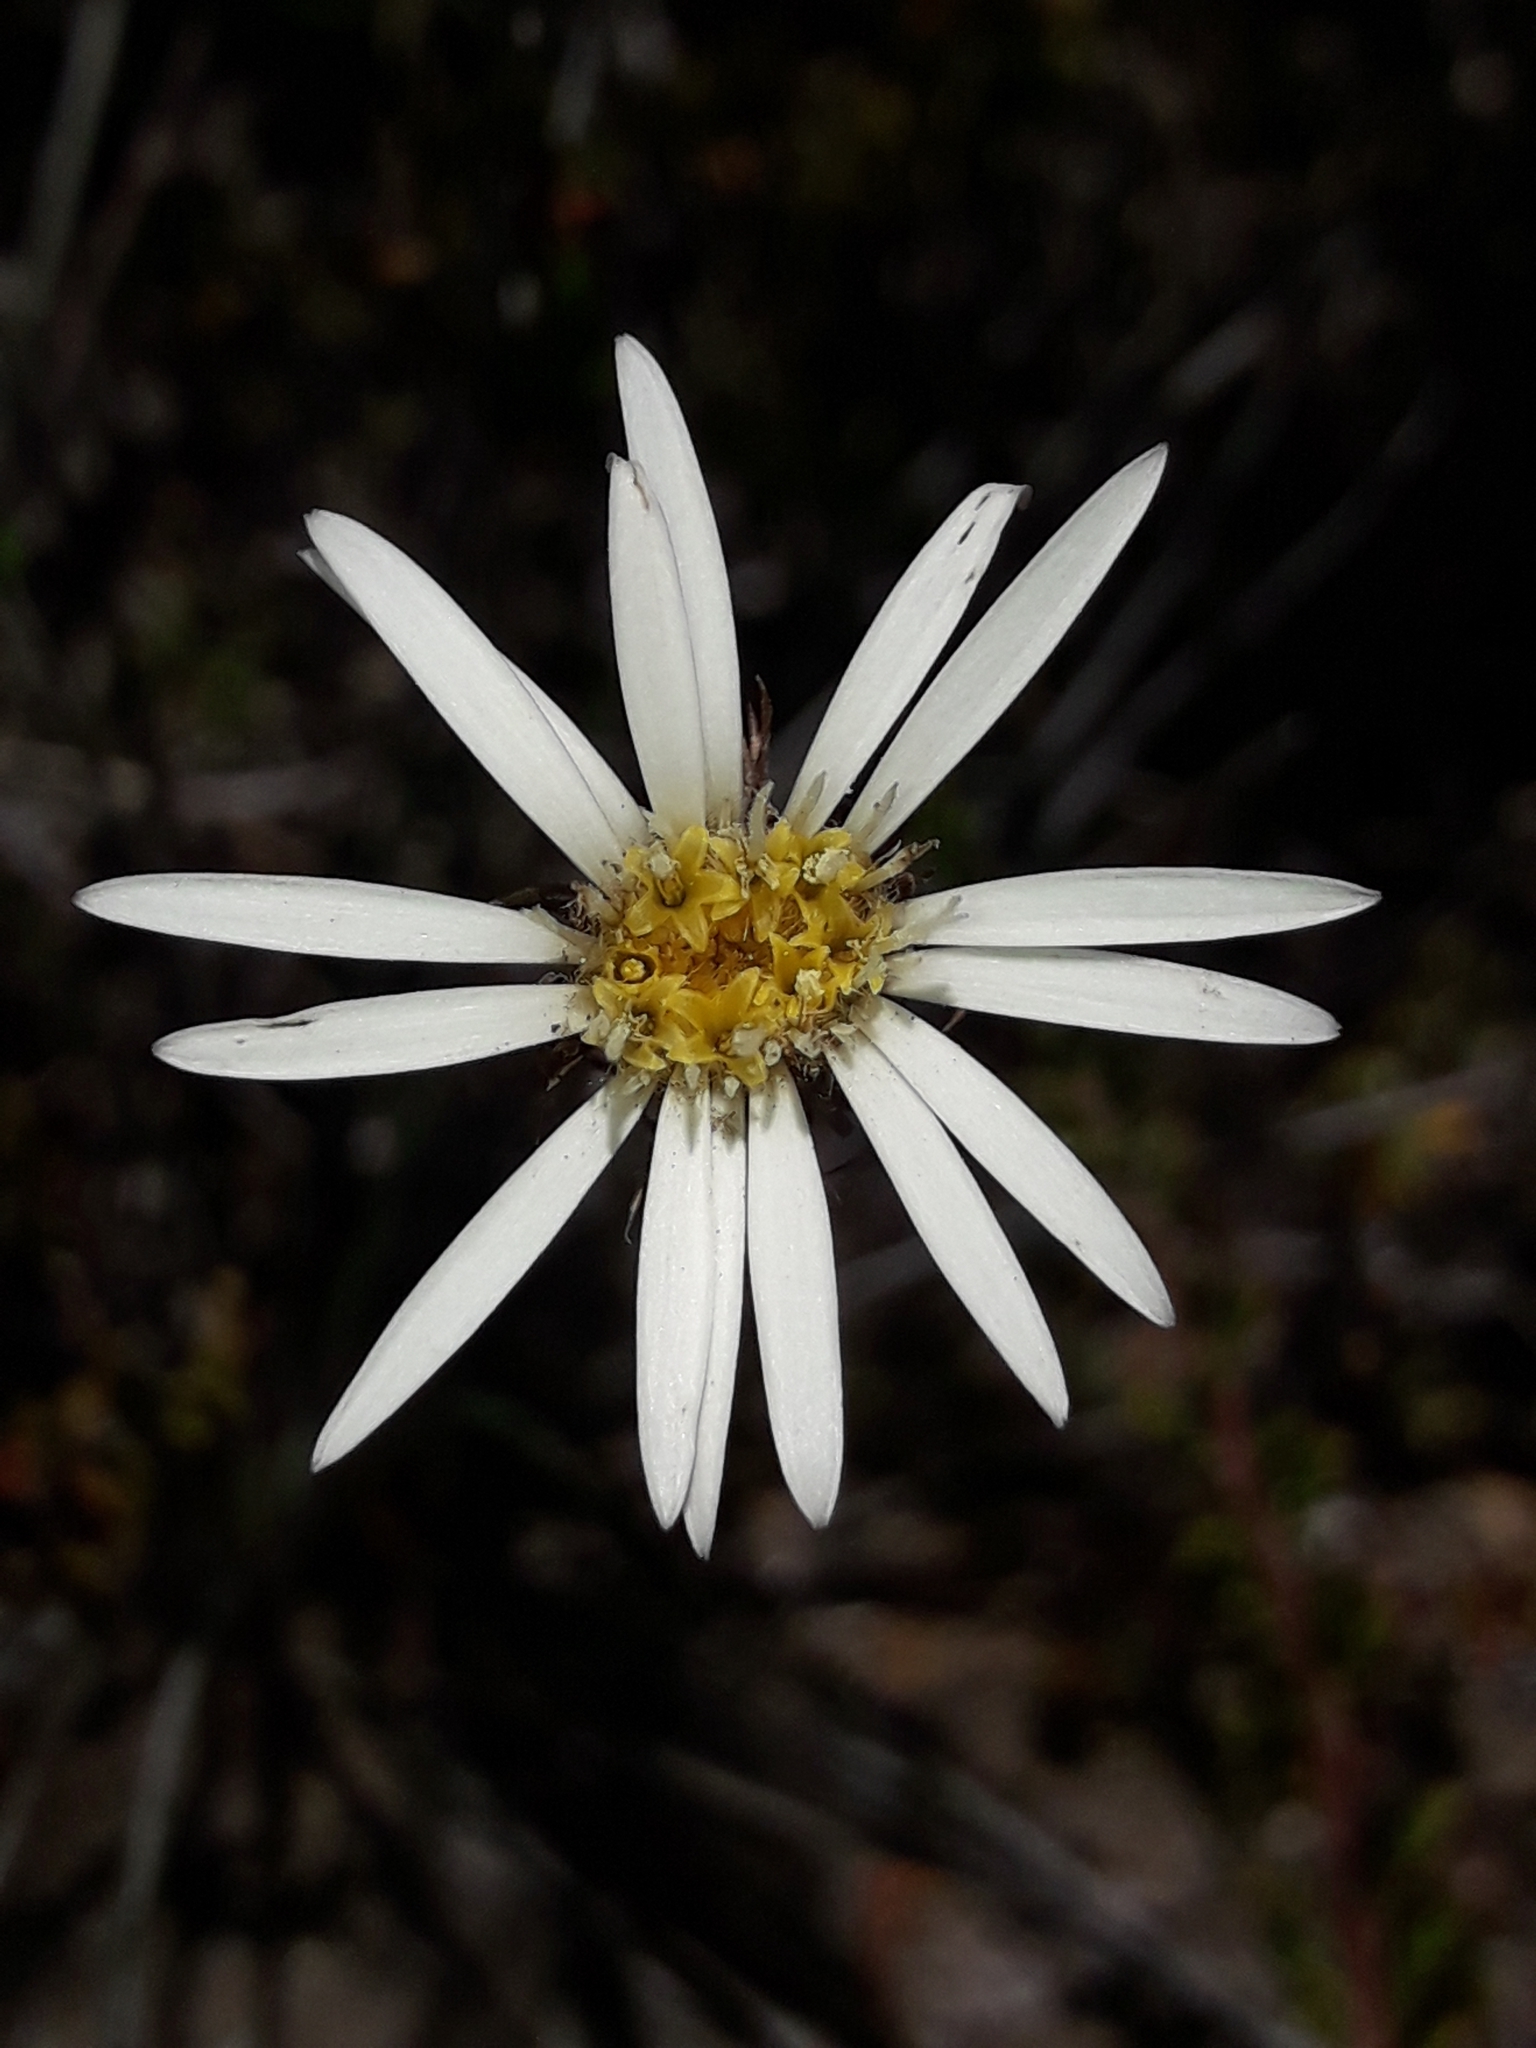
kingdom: Plantae
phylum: Tracheophyta
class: Magnoliopsida
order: Asterales
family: Asteraceae
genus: Celmisia
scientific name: Celmisia gracilenta
